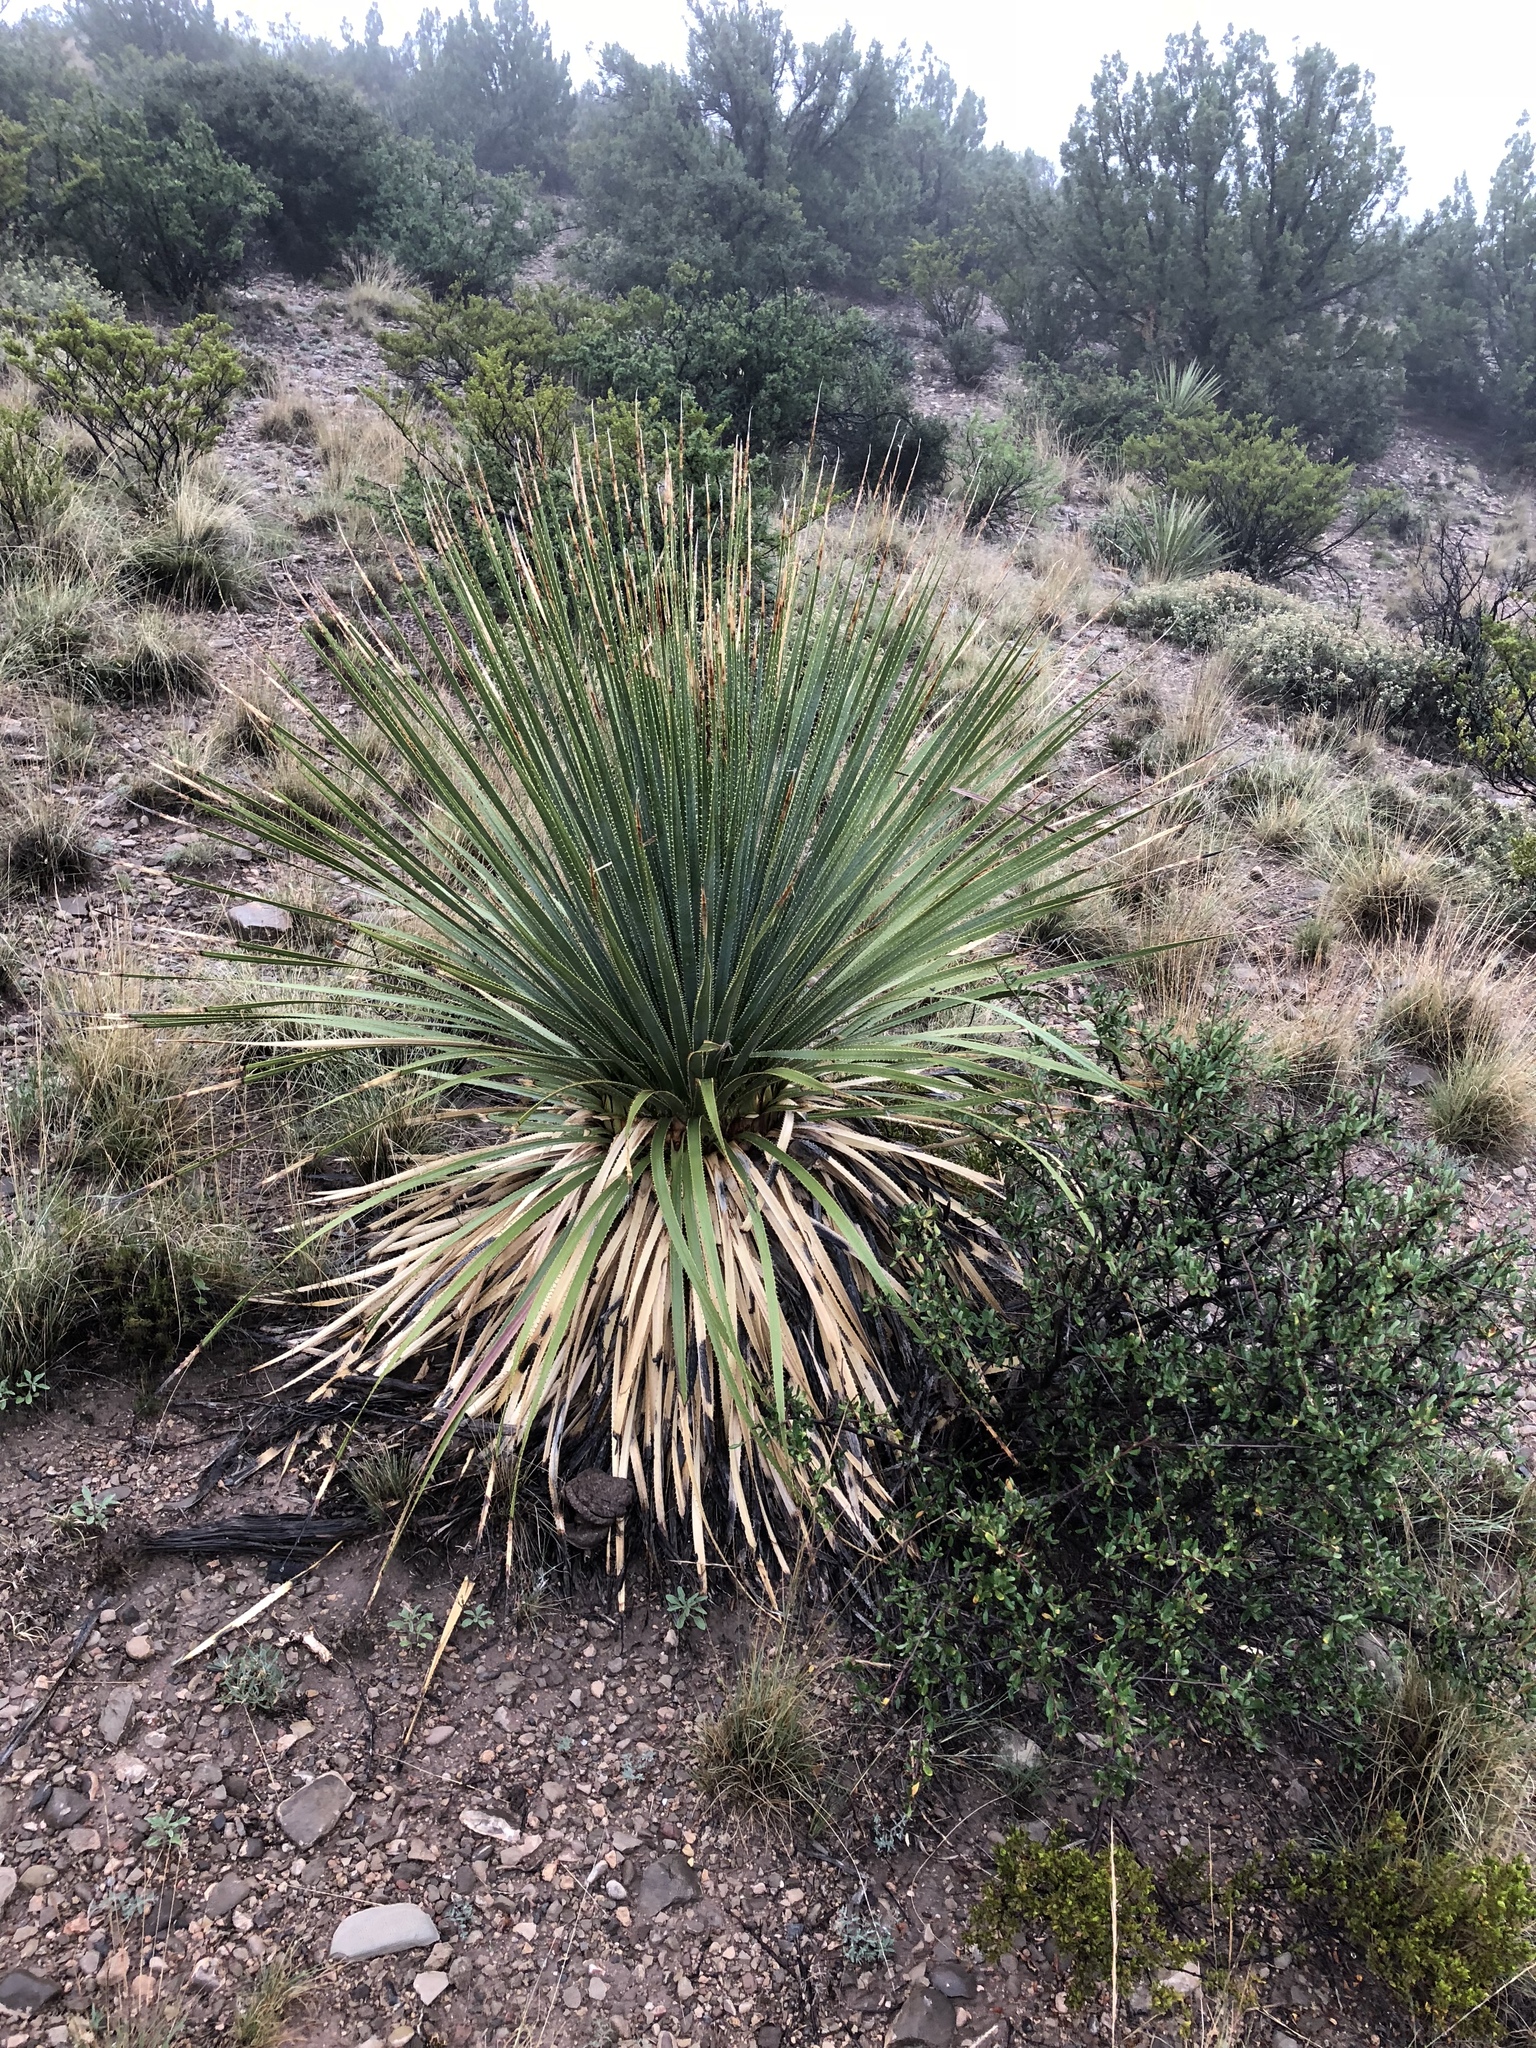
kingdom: Plantae
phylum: Tracheophyta
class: Liliopsida
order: Asparagales
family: Asparagaceae
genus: Dasylirion
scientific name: Dasylirion wheeleri
